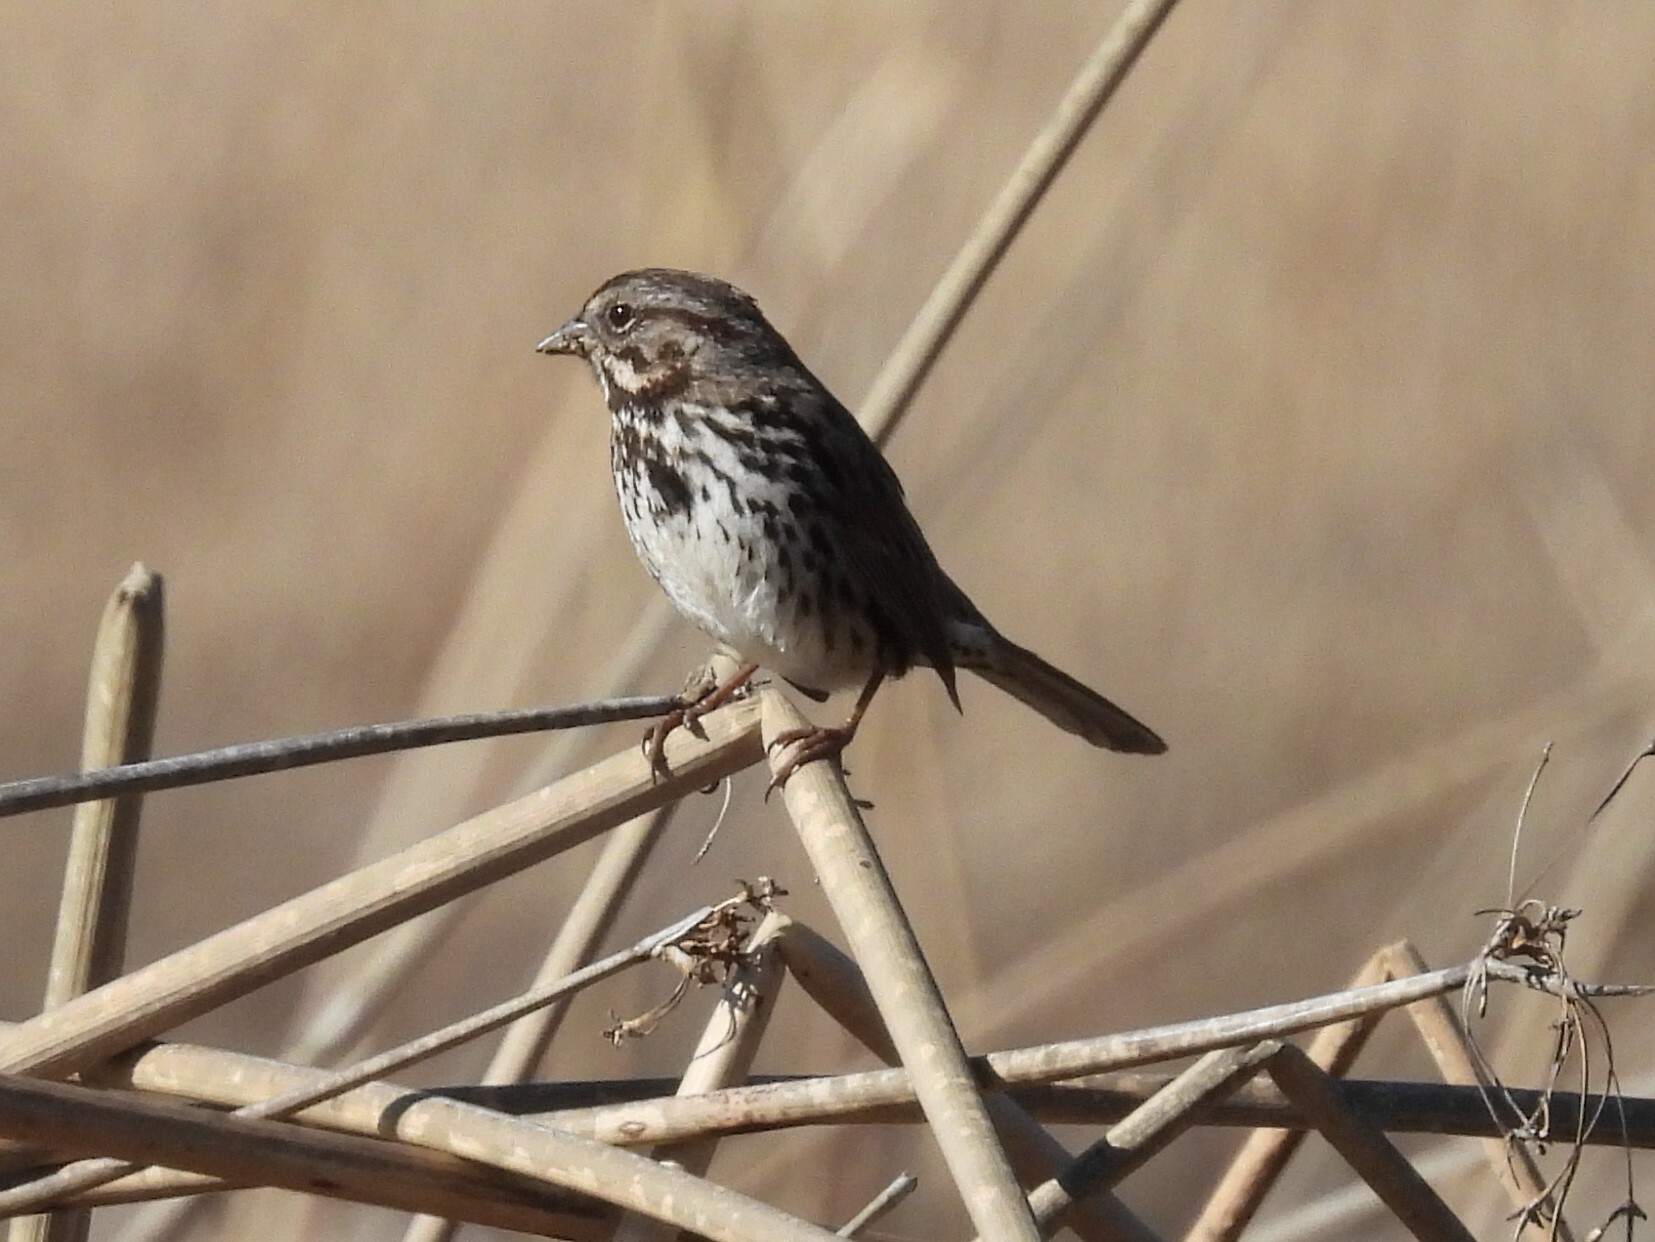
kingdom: Animalia
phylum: Chordata
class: Aves
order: Passeriformes
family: Passerellidae
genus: Melospiza
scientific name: Melospiza melodia
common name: Song sparrow
